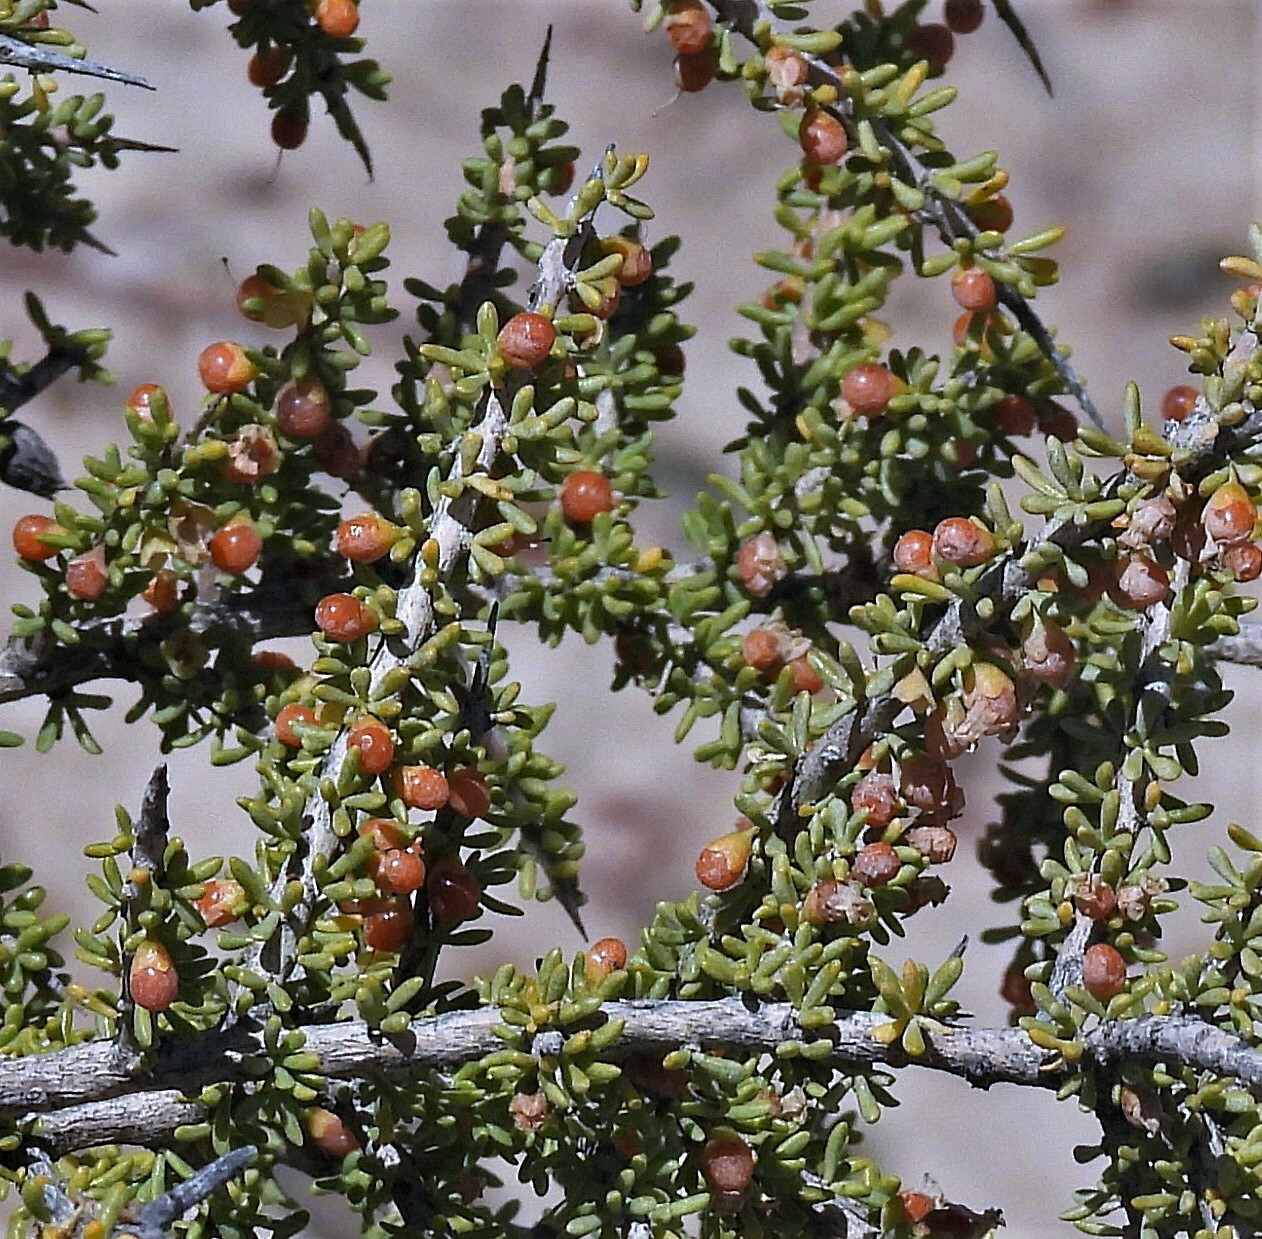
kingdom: Plantae
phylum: Tracheophyta
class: Magnoliopsida
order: Solanales
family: Solanaceae
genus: Lycium
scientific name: Lycium infaustum
